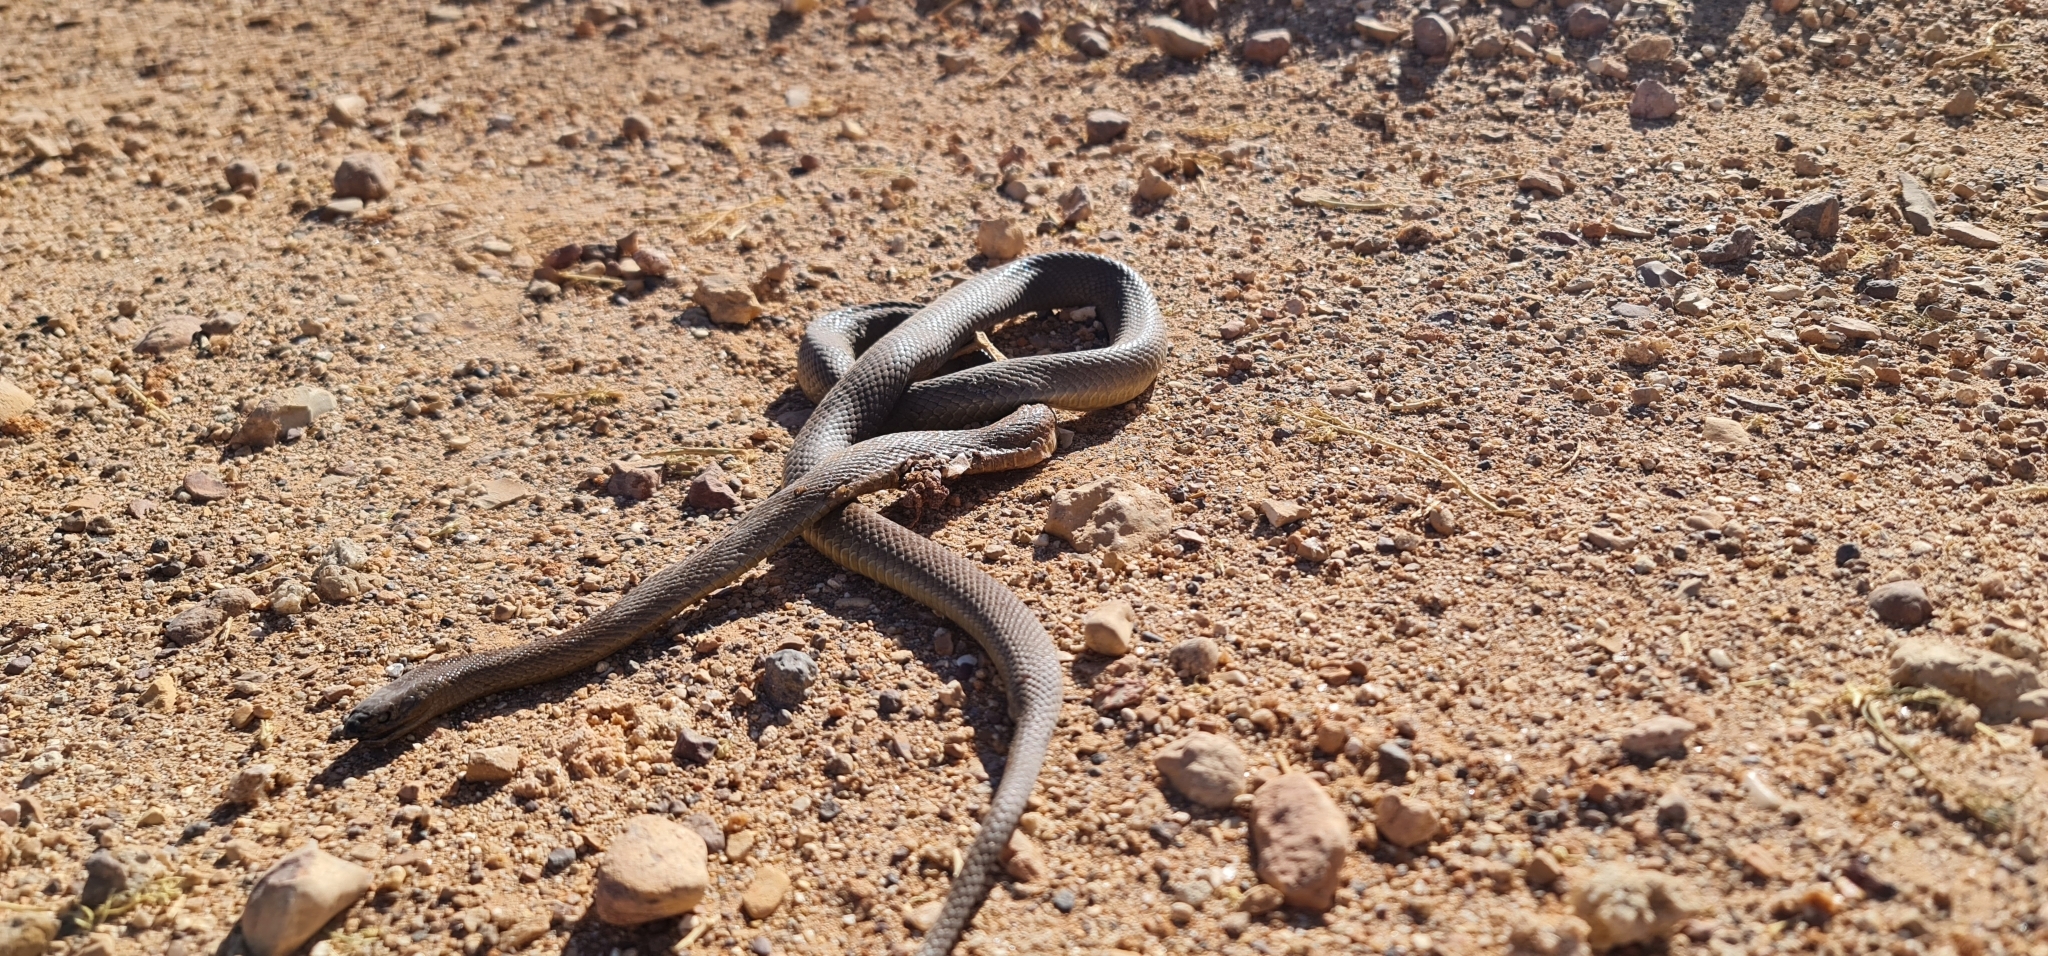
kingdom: Animalia
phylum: Chordata
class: Squamata
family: Elapidae
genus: Oxyuranus
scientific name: Oxyuranus microlepidotus
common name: Fierce snake
